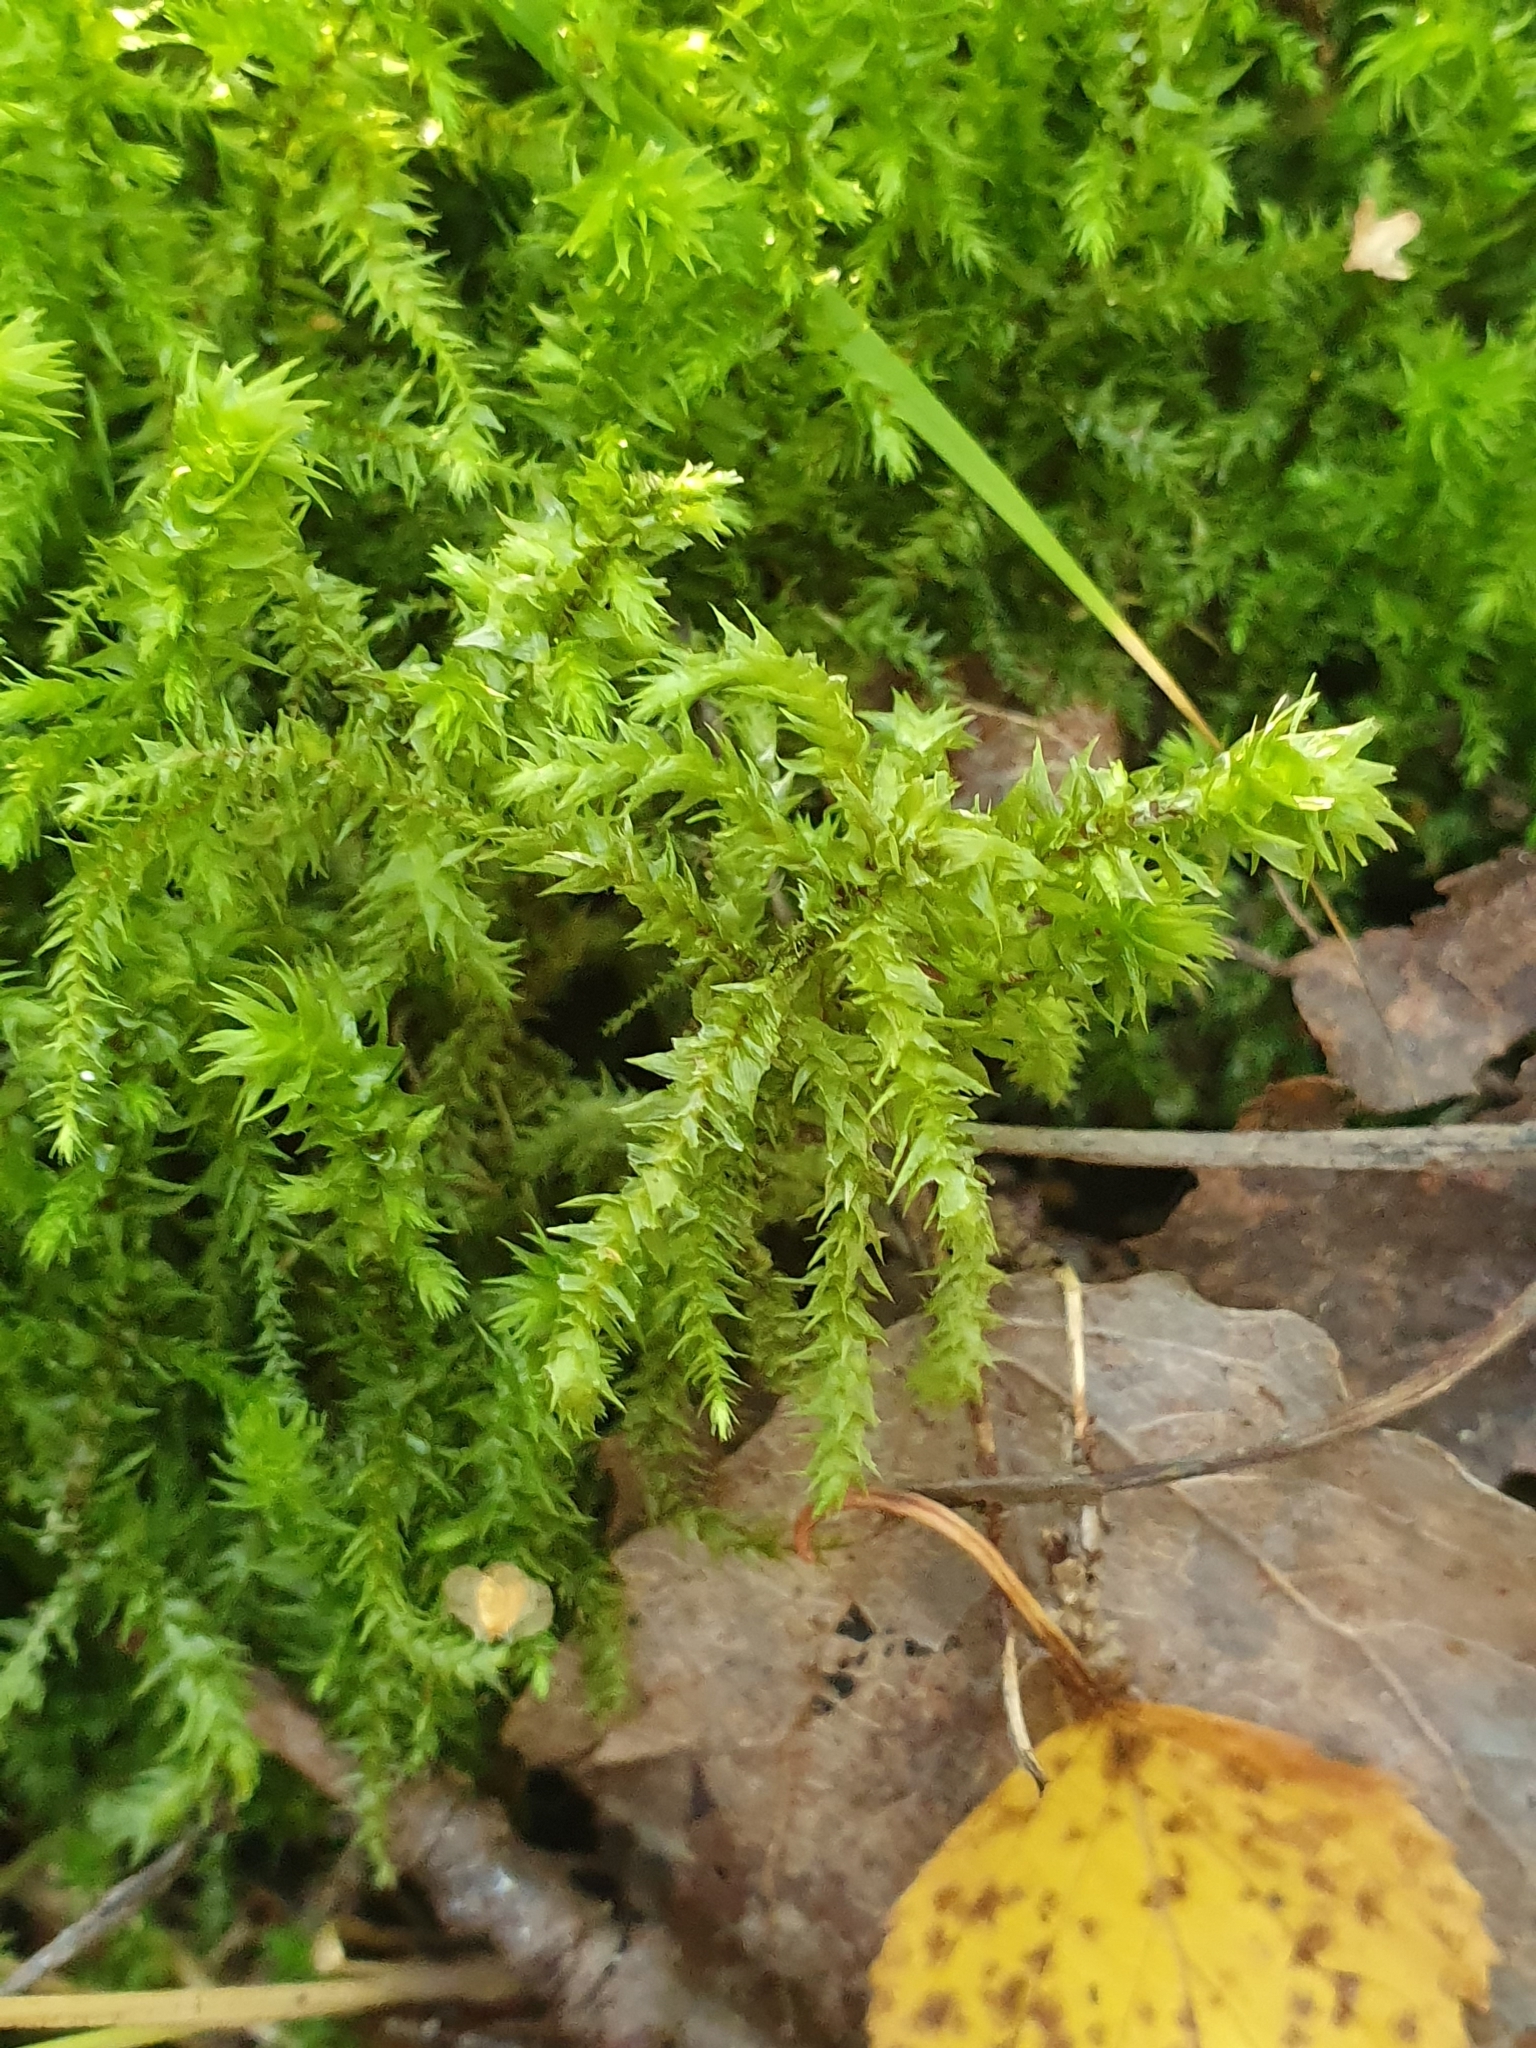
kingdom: Plantae
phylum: Bryophyta
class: Bryopsida
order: Hypnales
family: Hylocomiaceae
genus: Hylocomiadelphus
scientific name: Hylocomiadelphus triquetrus
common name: Rough goose neck moss
